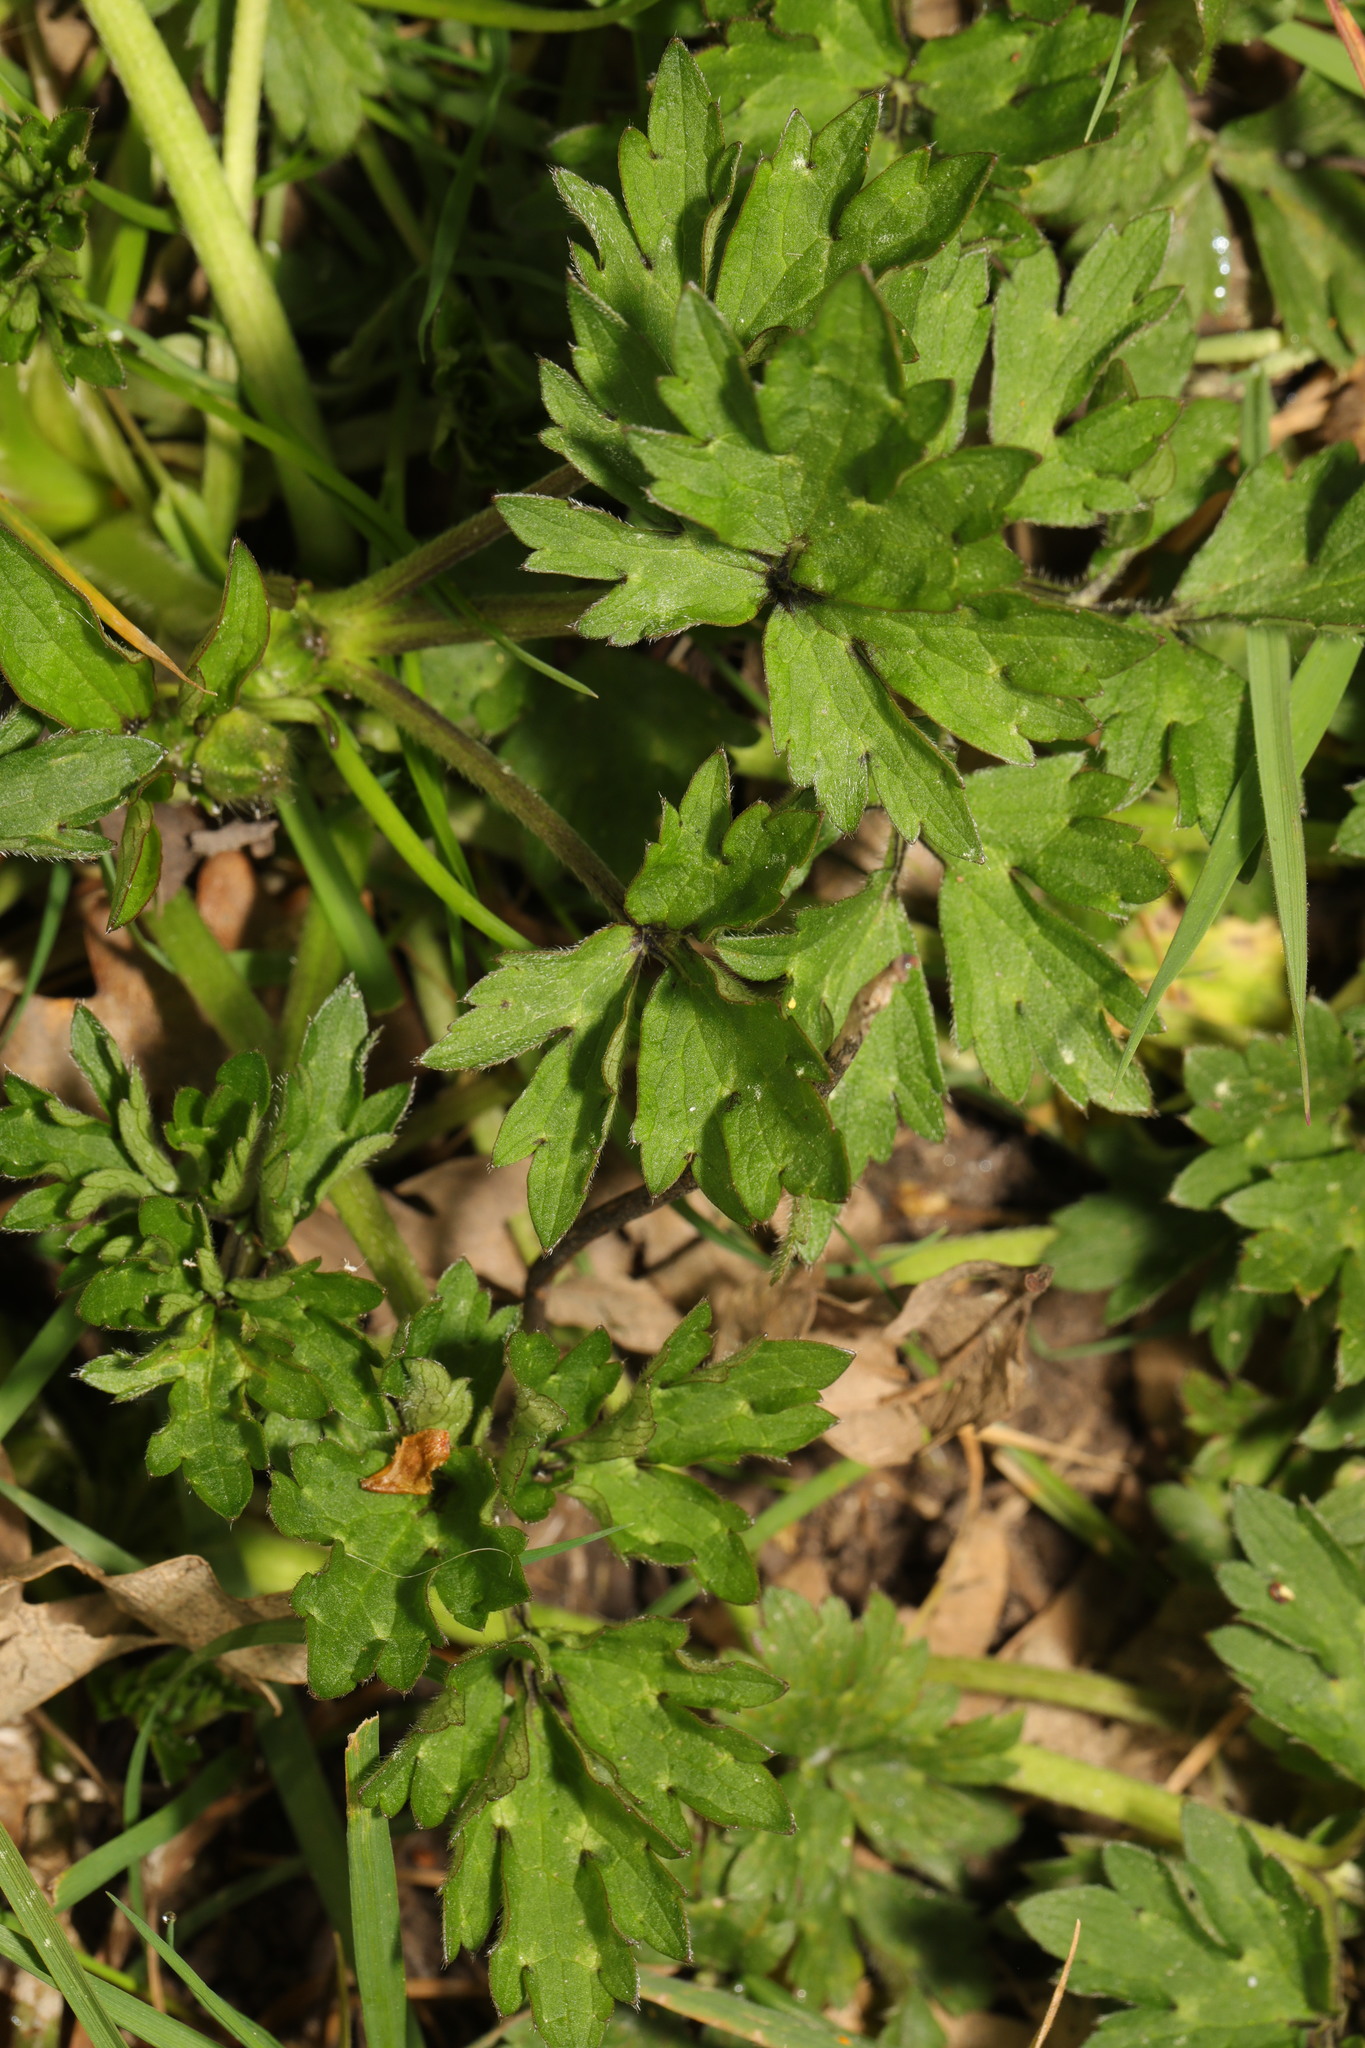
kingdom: Plantae
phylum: Tracheophyta
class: Magnoliopsida
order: Ranunculales
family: Ranunculaceae
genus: Ranunculus
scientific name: Ranunculus repens
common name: Creeping buttercup
